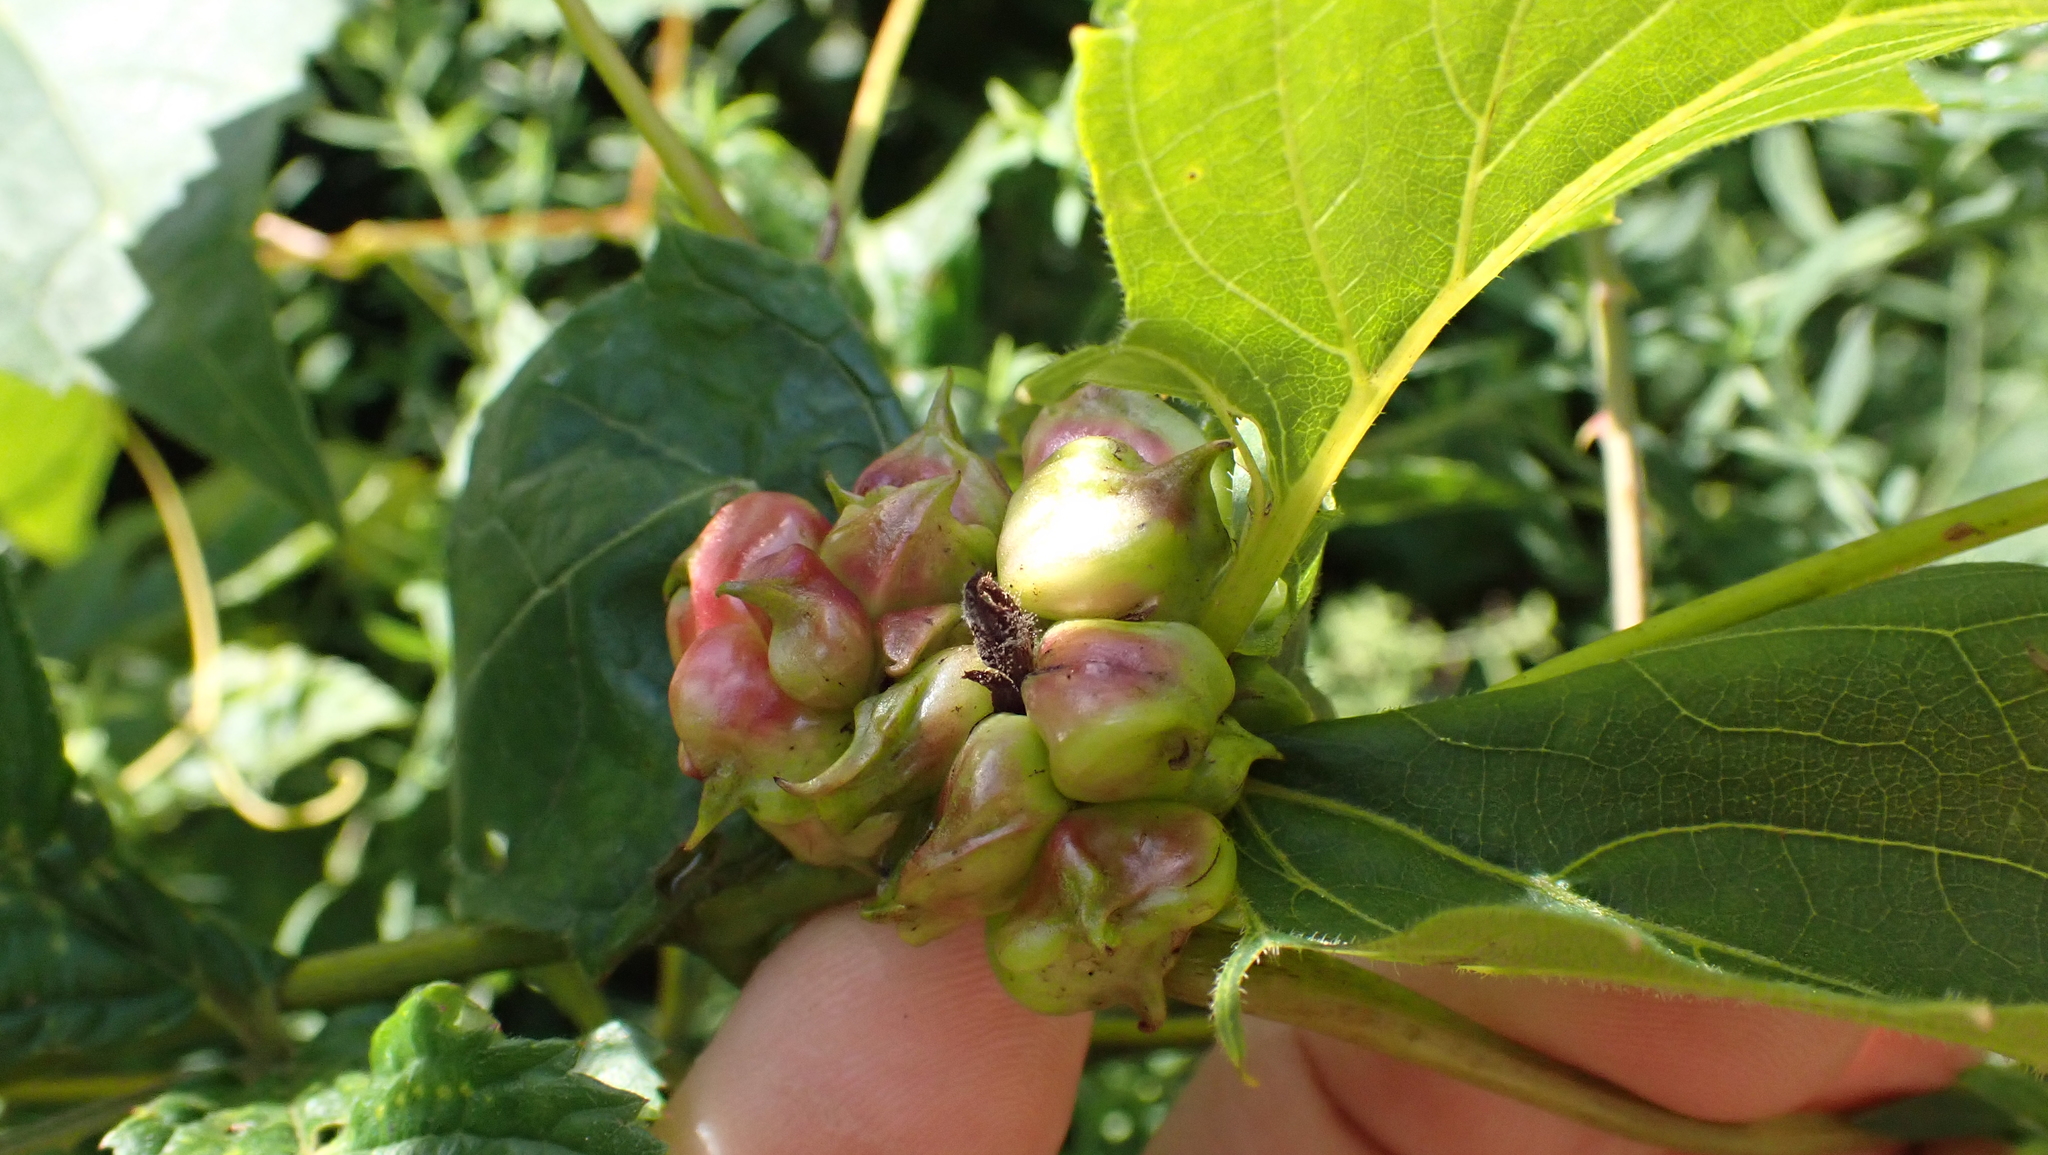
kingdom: Animalia
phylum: Arthropoda
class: Insecta
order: Diptera
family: Cecidomyiidae
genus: Ampelomyia
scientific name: Ampelomyia vitiscoryloides
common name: Grape filbert gall
